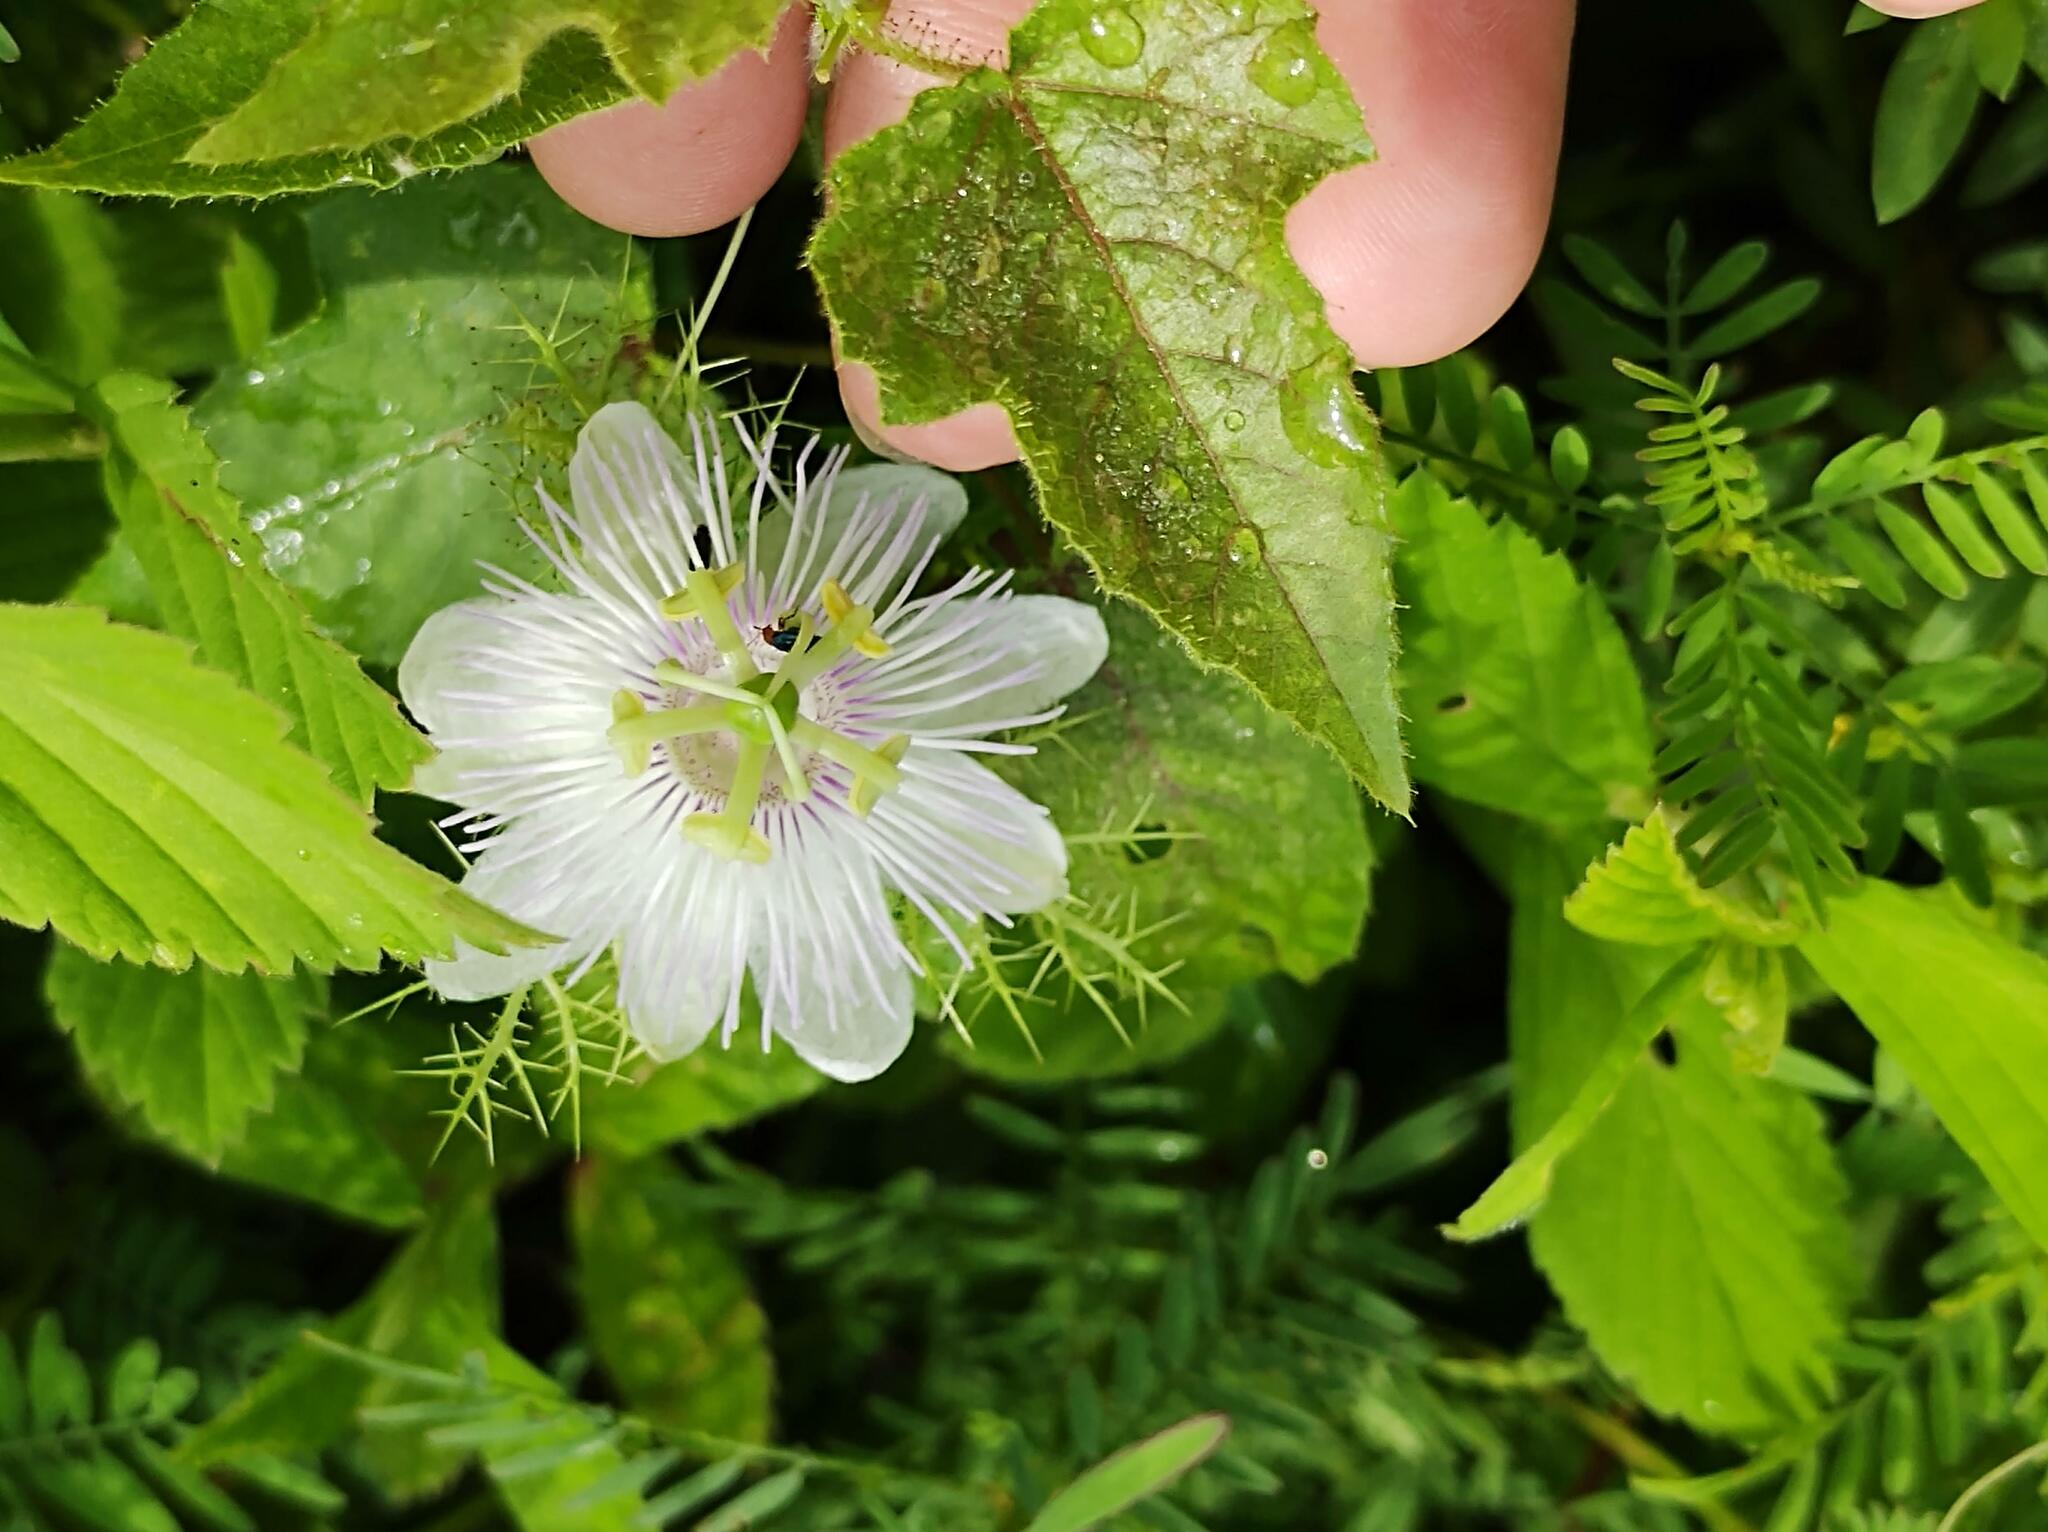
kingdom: Plantae
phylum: Tracheophyta
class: Magnoliopsida
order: Malpighiales
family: Passifloraceae
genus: Passiflora
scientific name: Passiflora foetida
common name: Fetid passionflower
